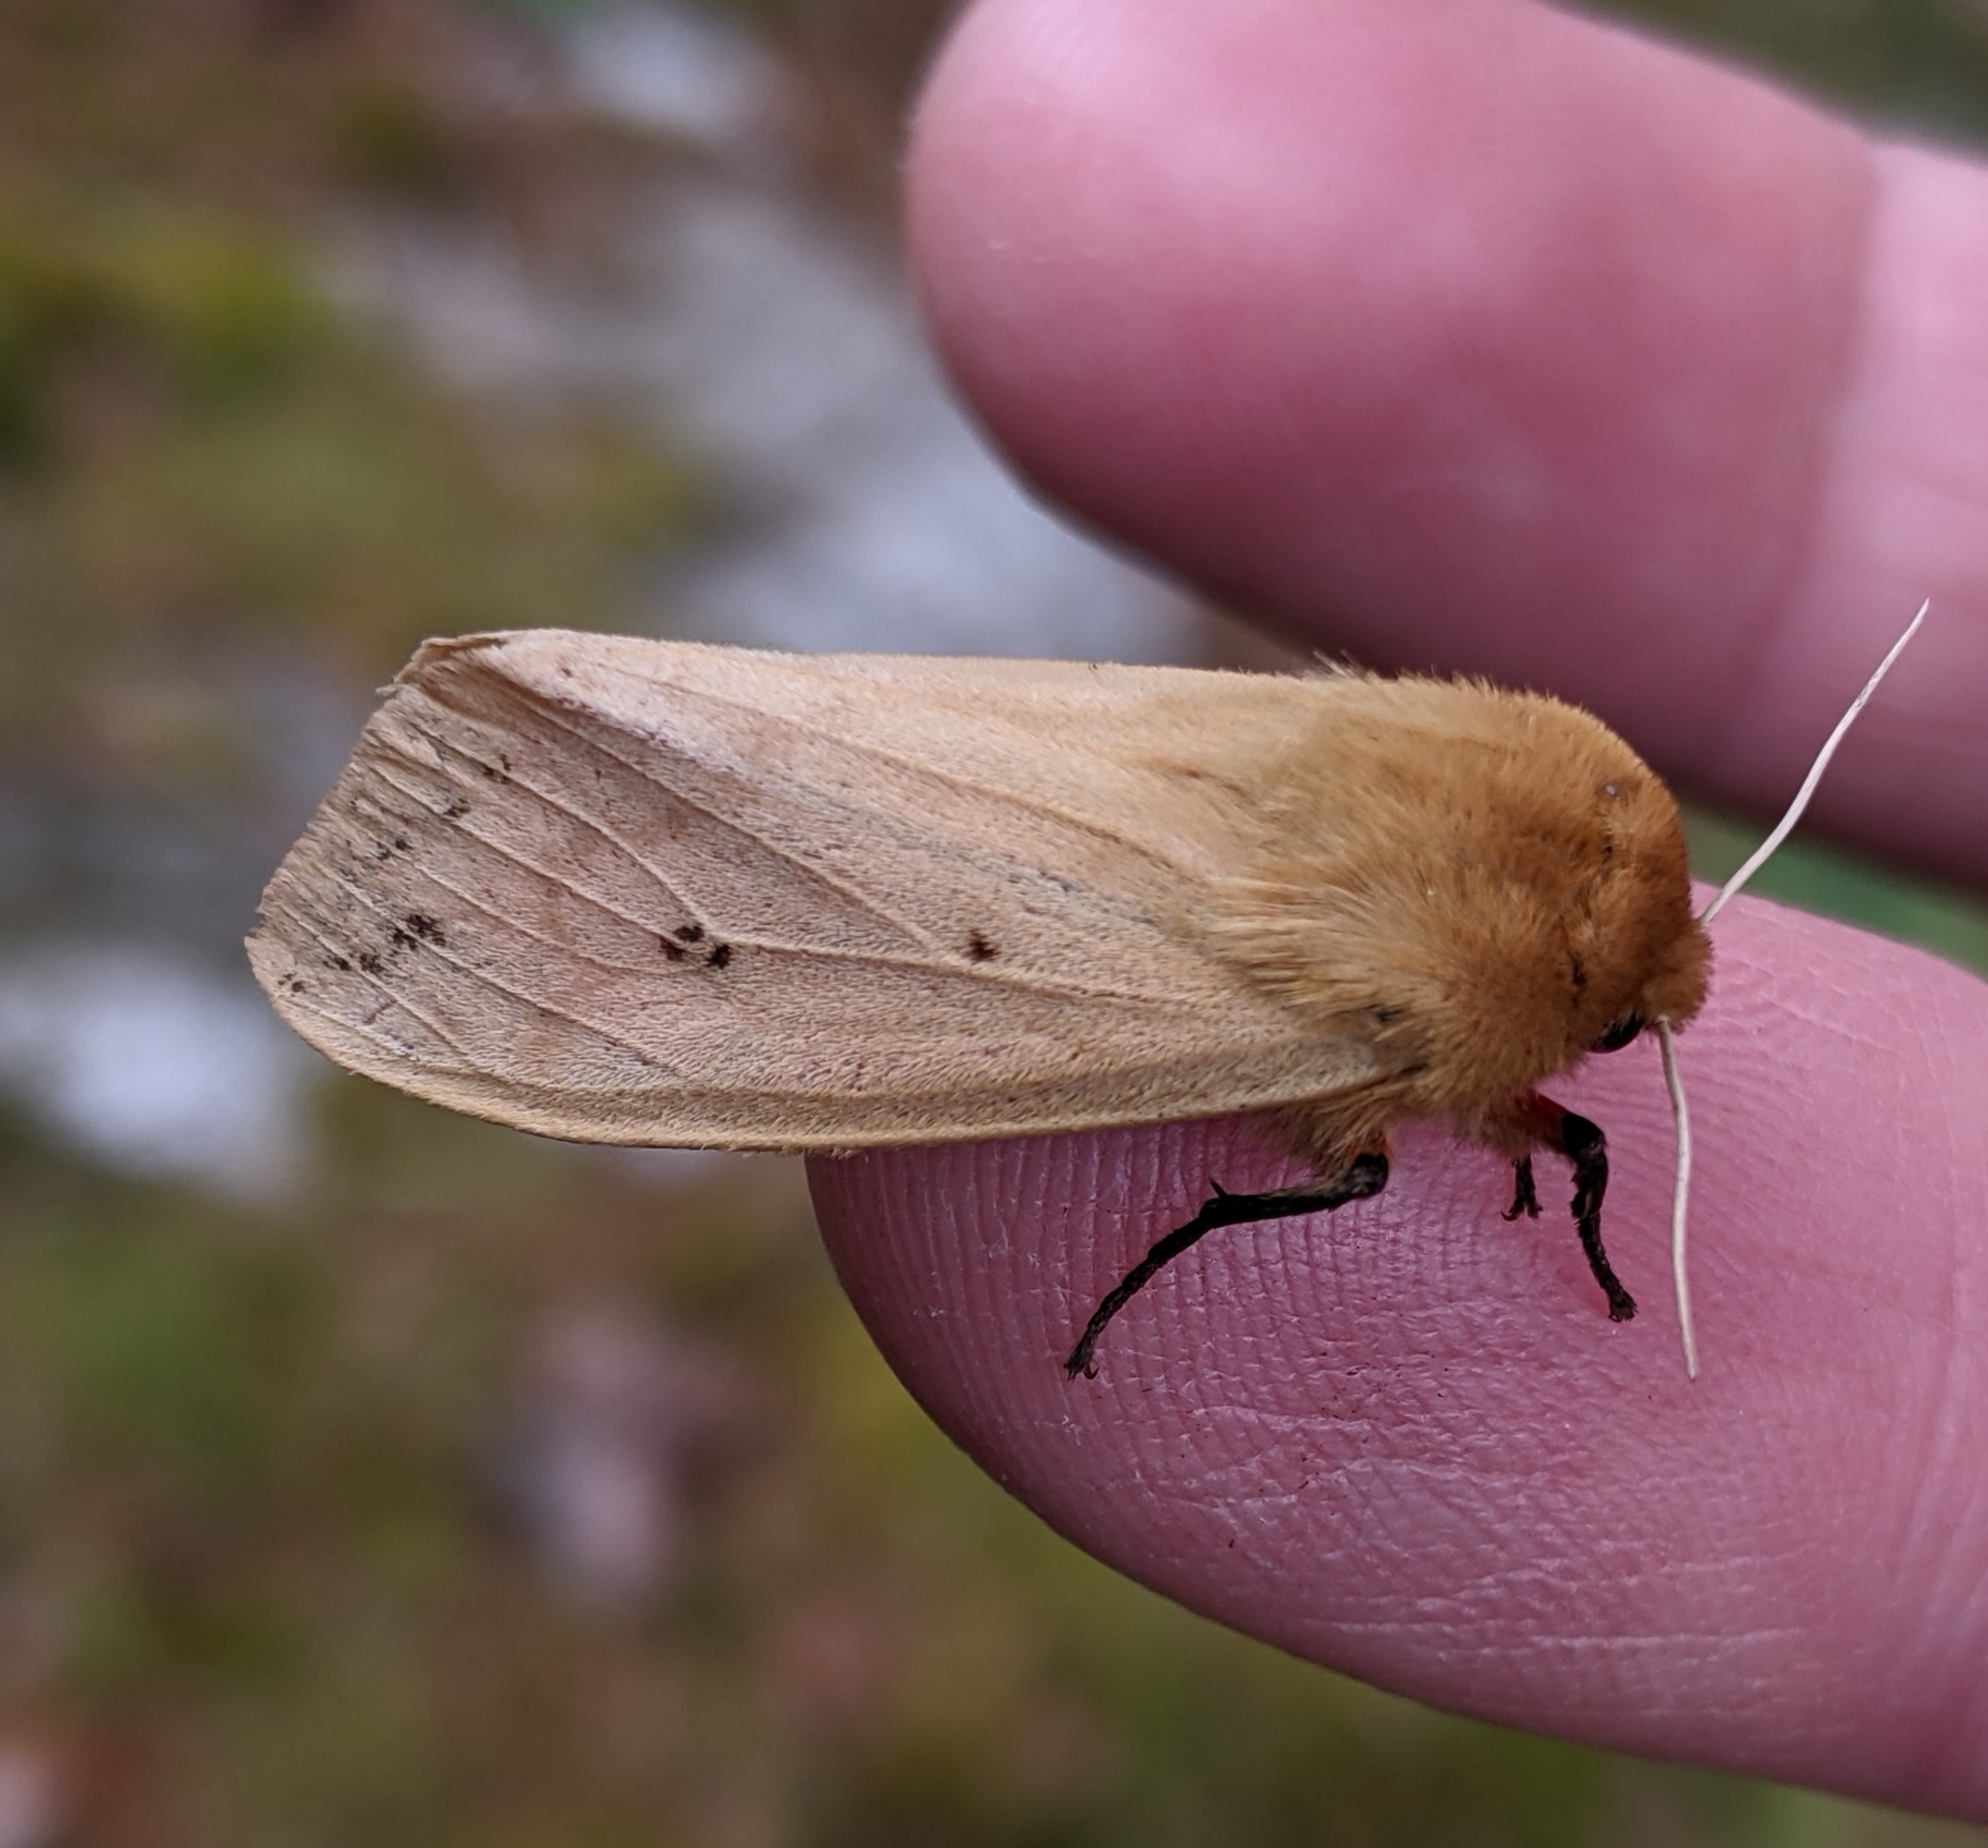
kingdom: Animalia
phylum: Arthropoda
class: Insecta
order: Lepidoptera
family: Erebidae
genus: Pyrrharctia
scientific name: Pyrrharctia isabella
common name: Isabella tiger moth
